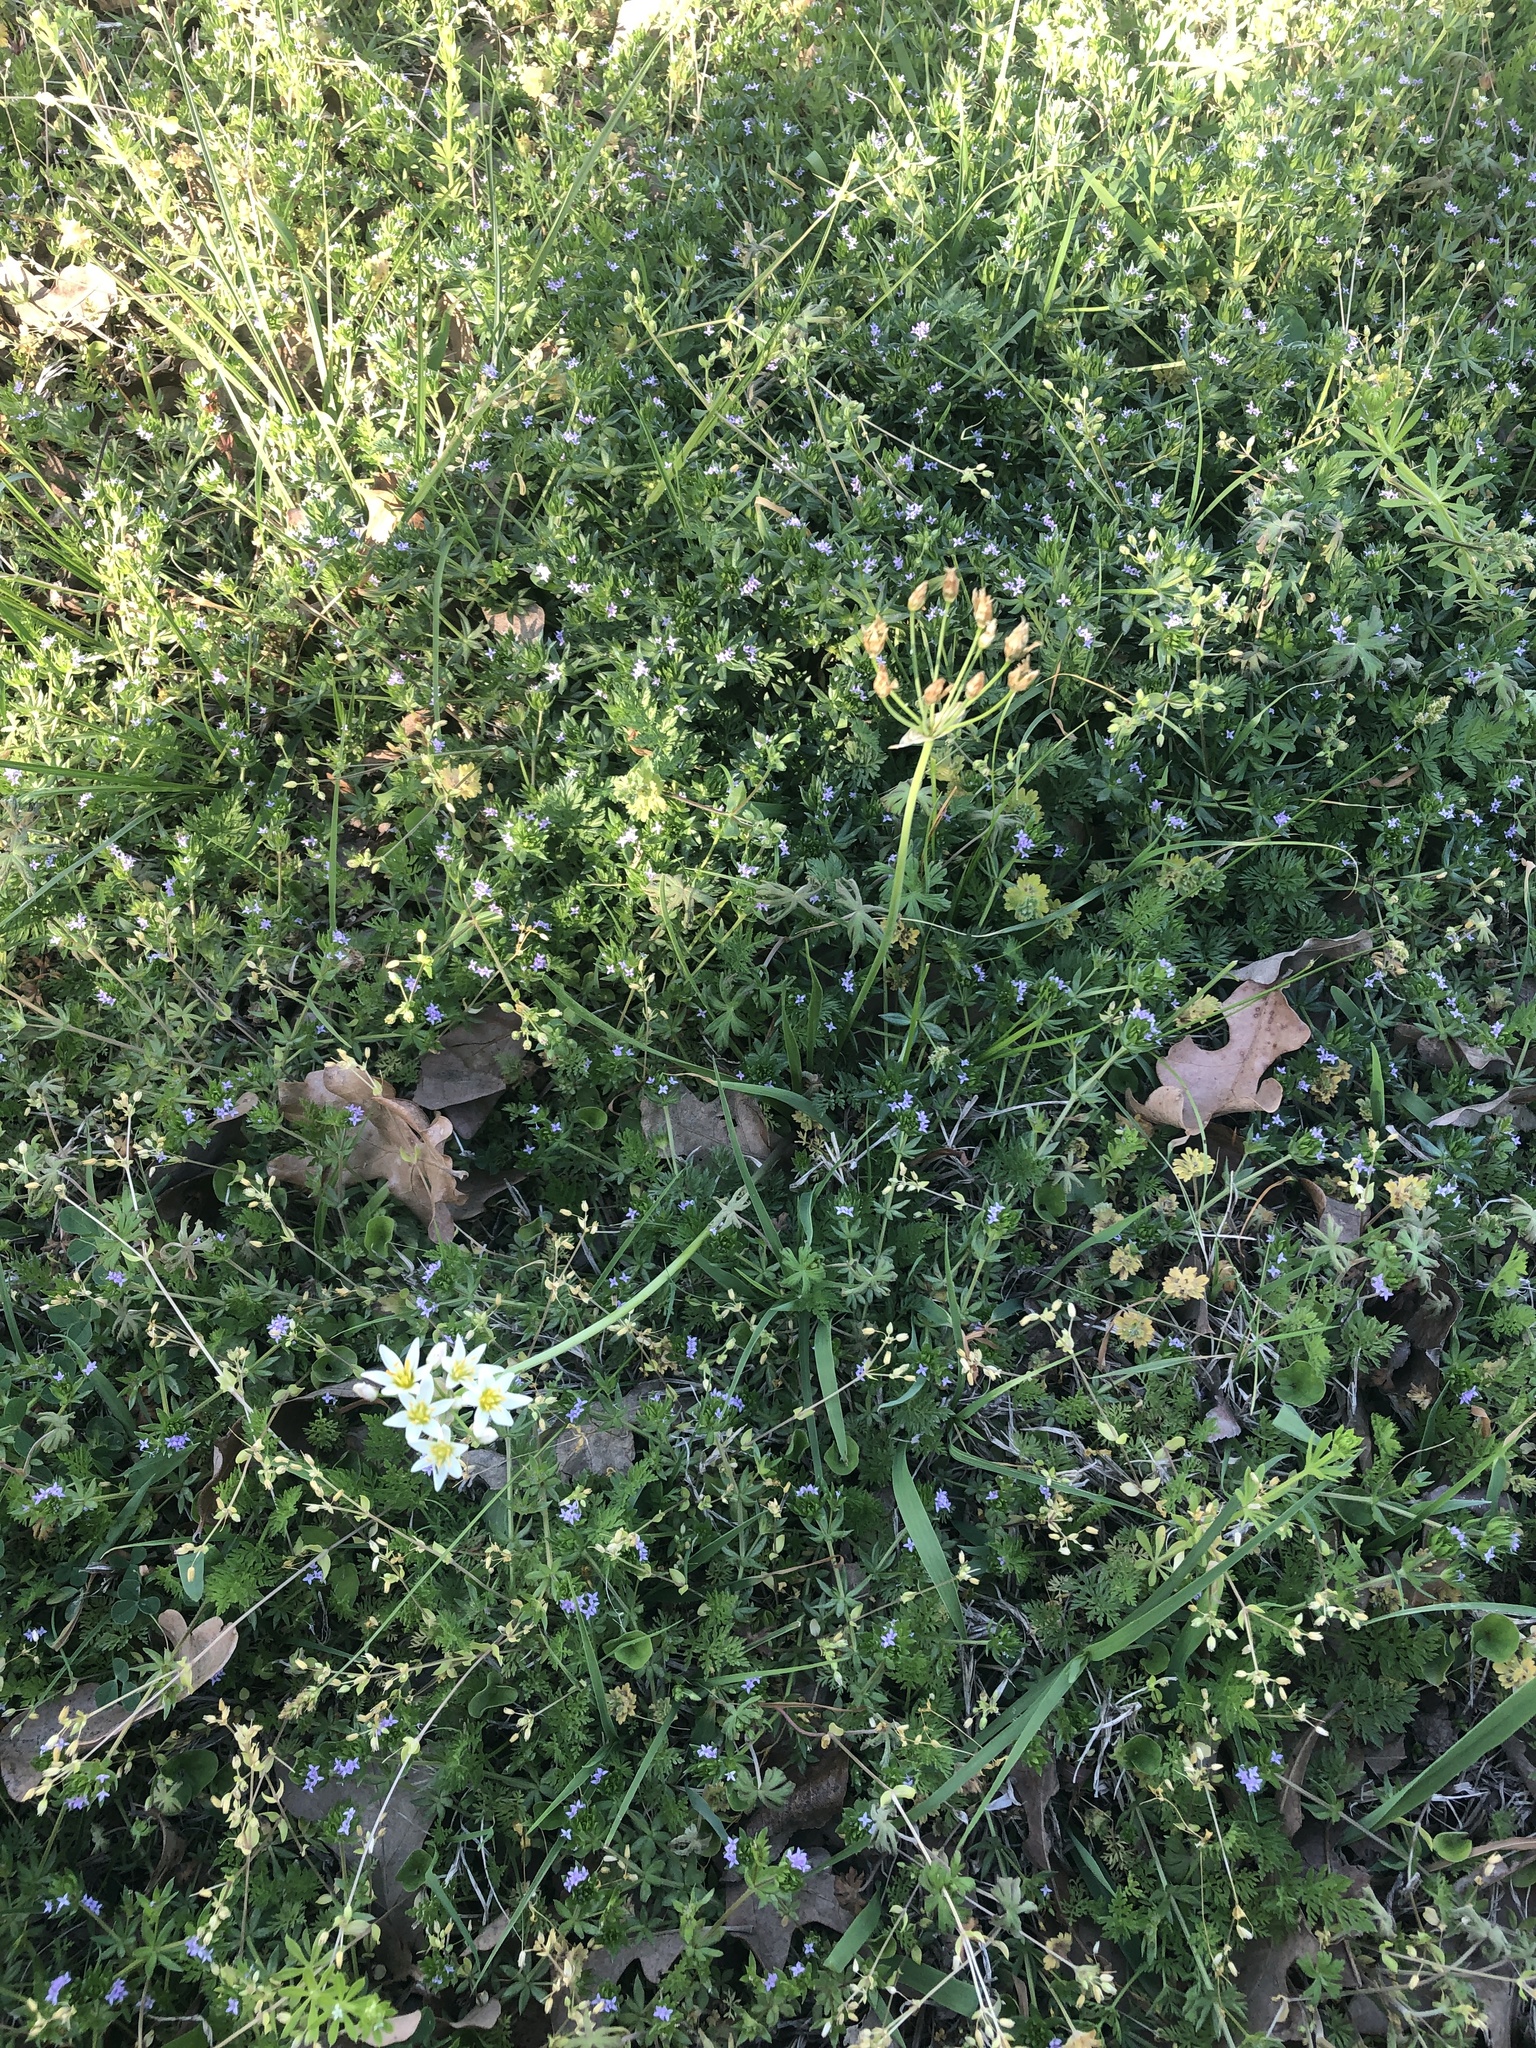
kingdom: Plantae
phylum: Tracheophyta
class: Liliopsida
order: Asparagales
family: Amaryllidaceae
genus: Nothoscordum
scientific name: Nothoscordum bivalve
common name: Crow-poison
